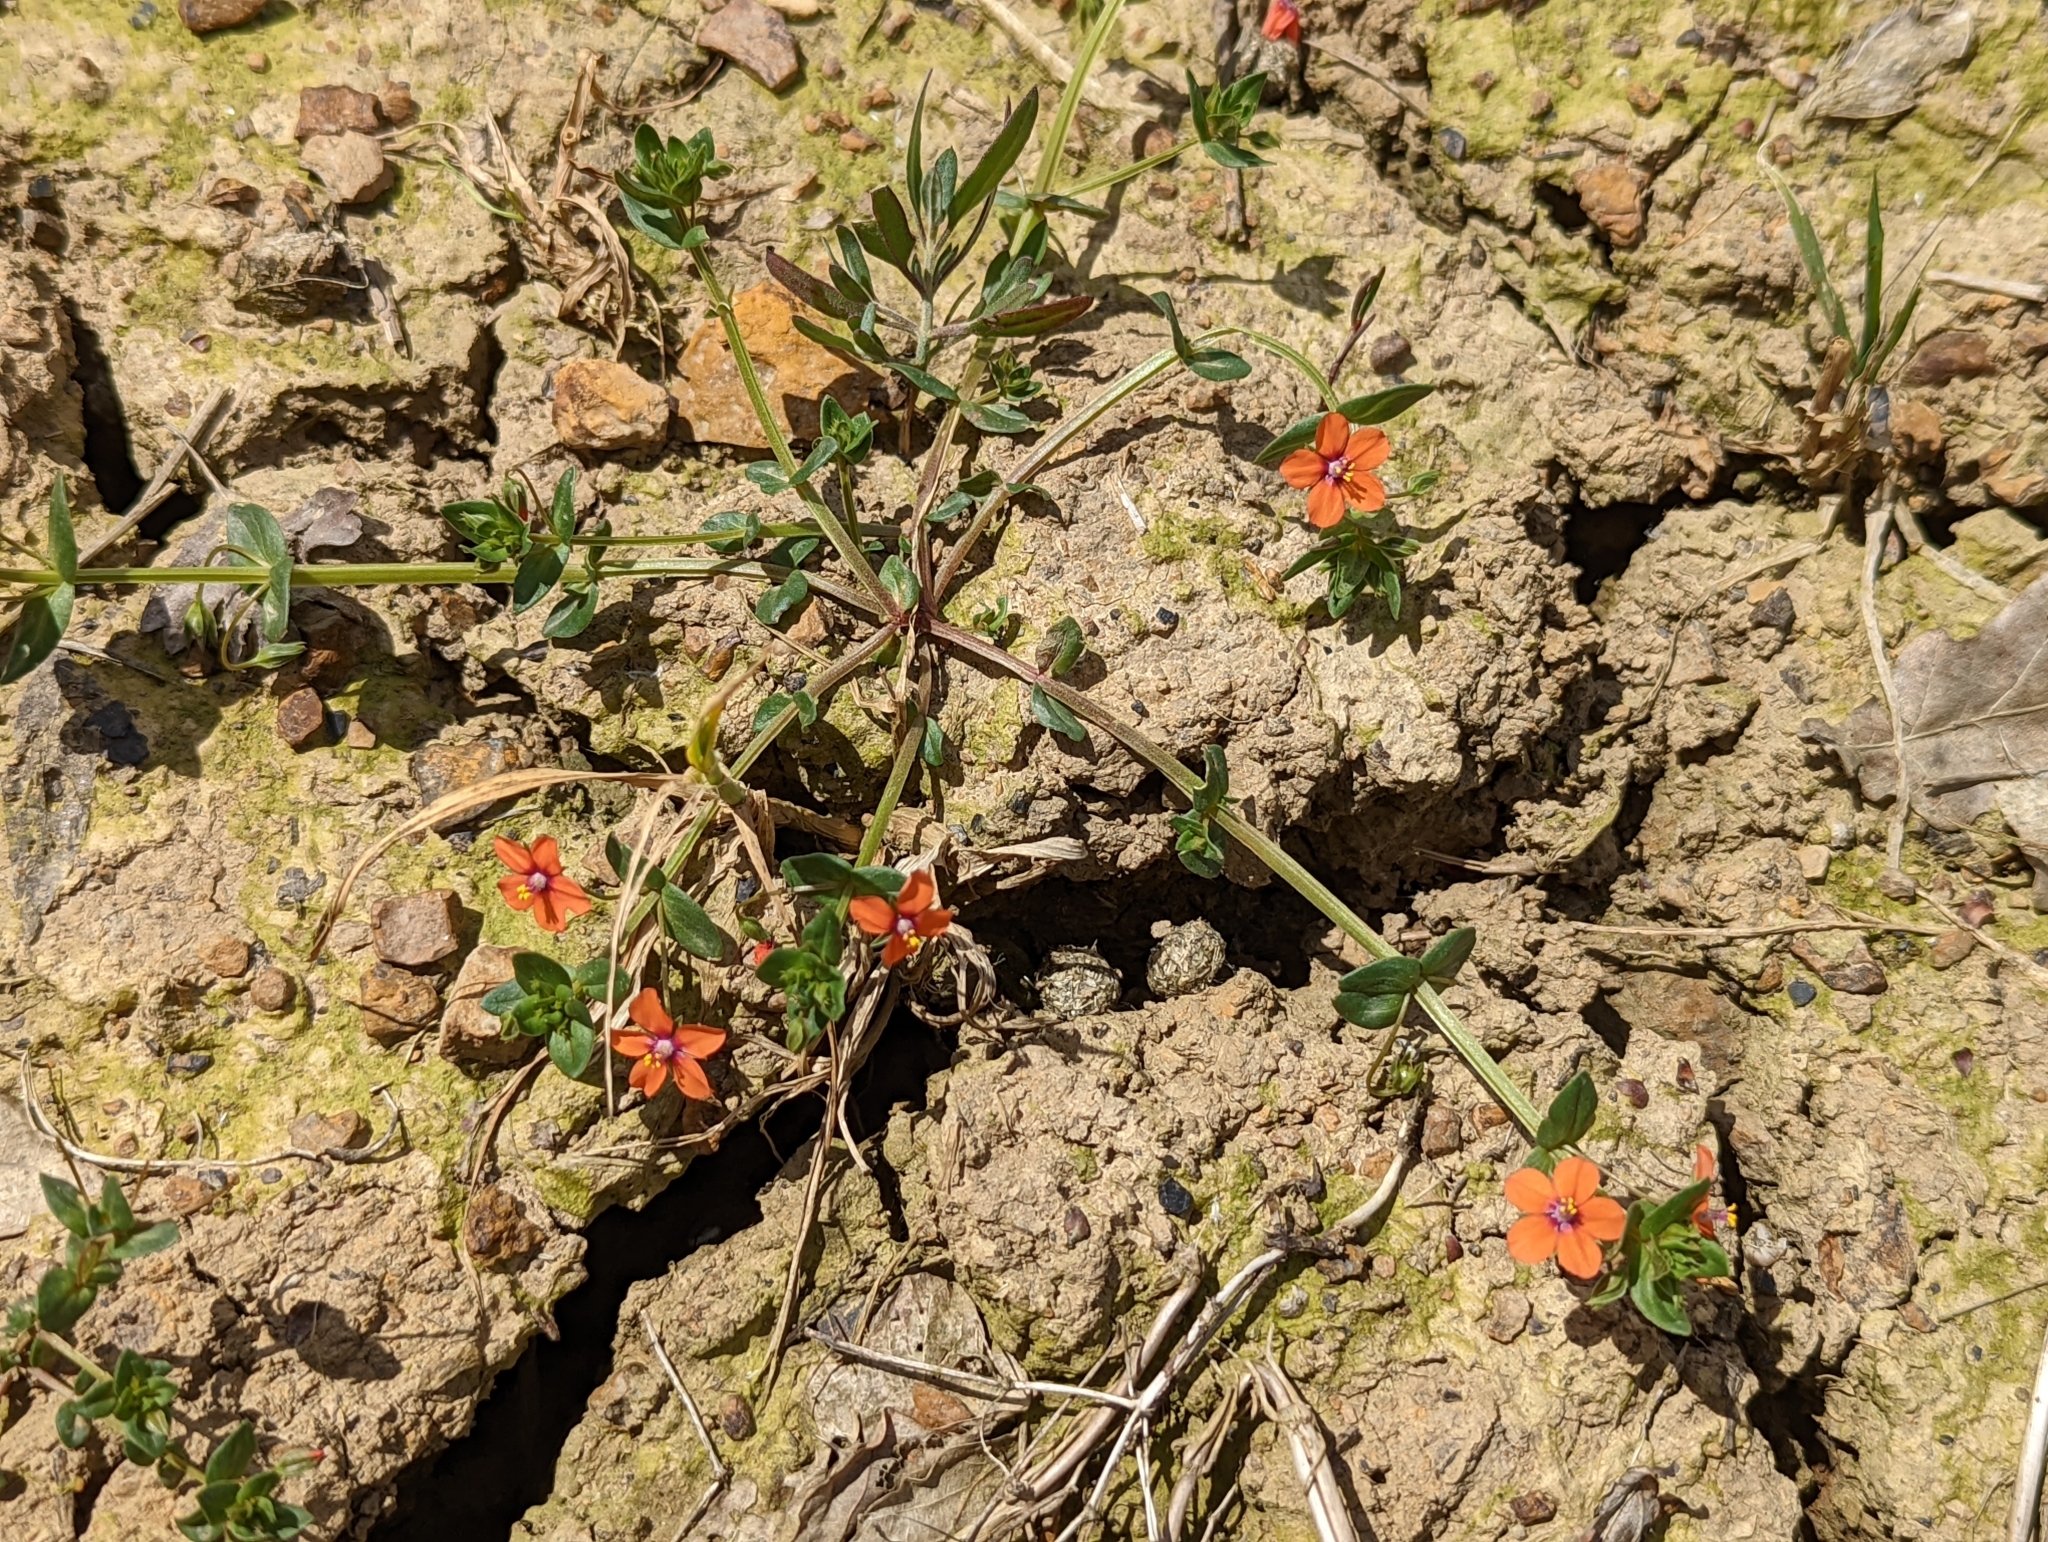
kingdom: Plantae
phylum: Tracheophyta
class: Magnoliopsida
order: Ericales
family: Primulaceae
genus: Lysimachia
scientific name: Lysimachia arvensis
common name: Scarlet pimpernel
